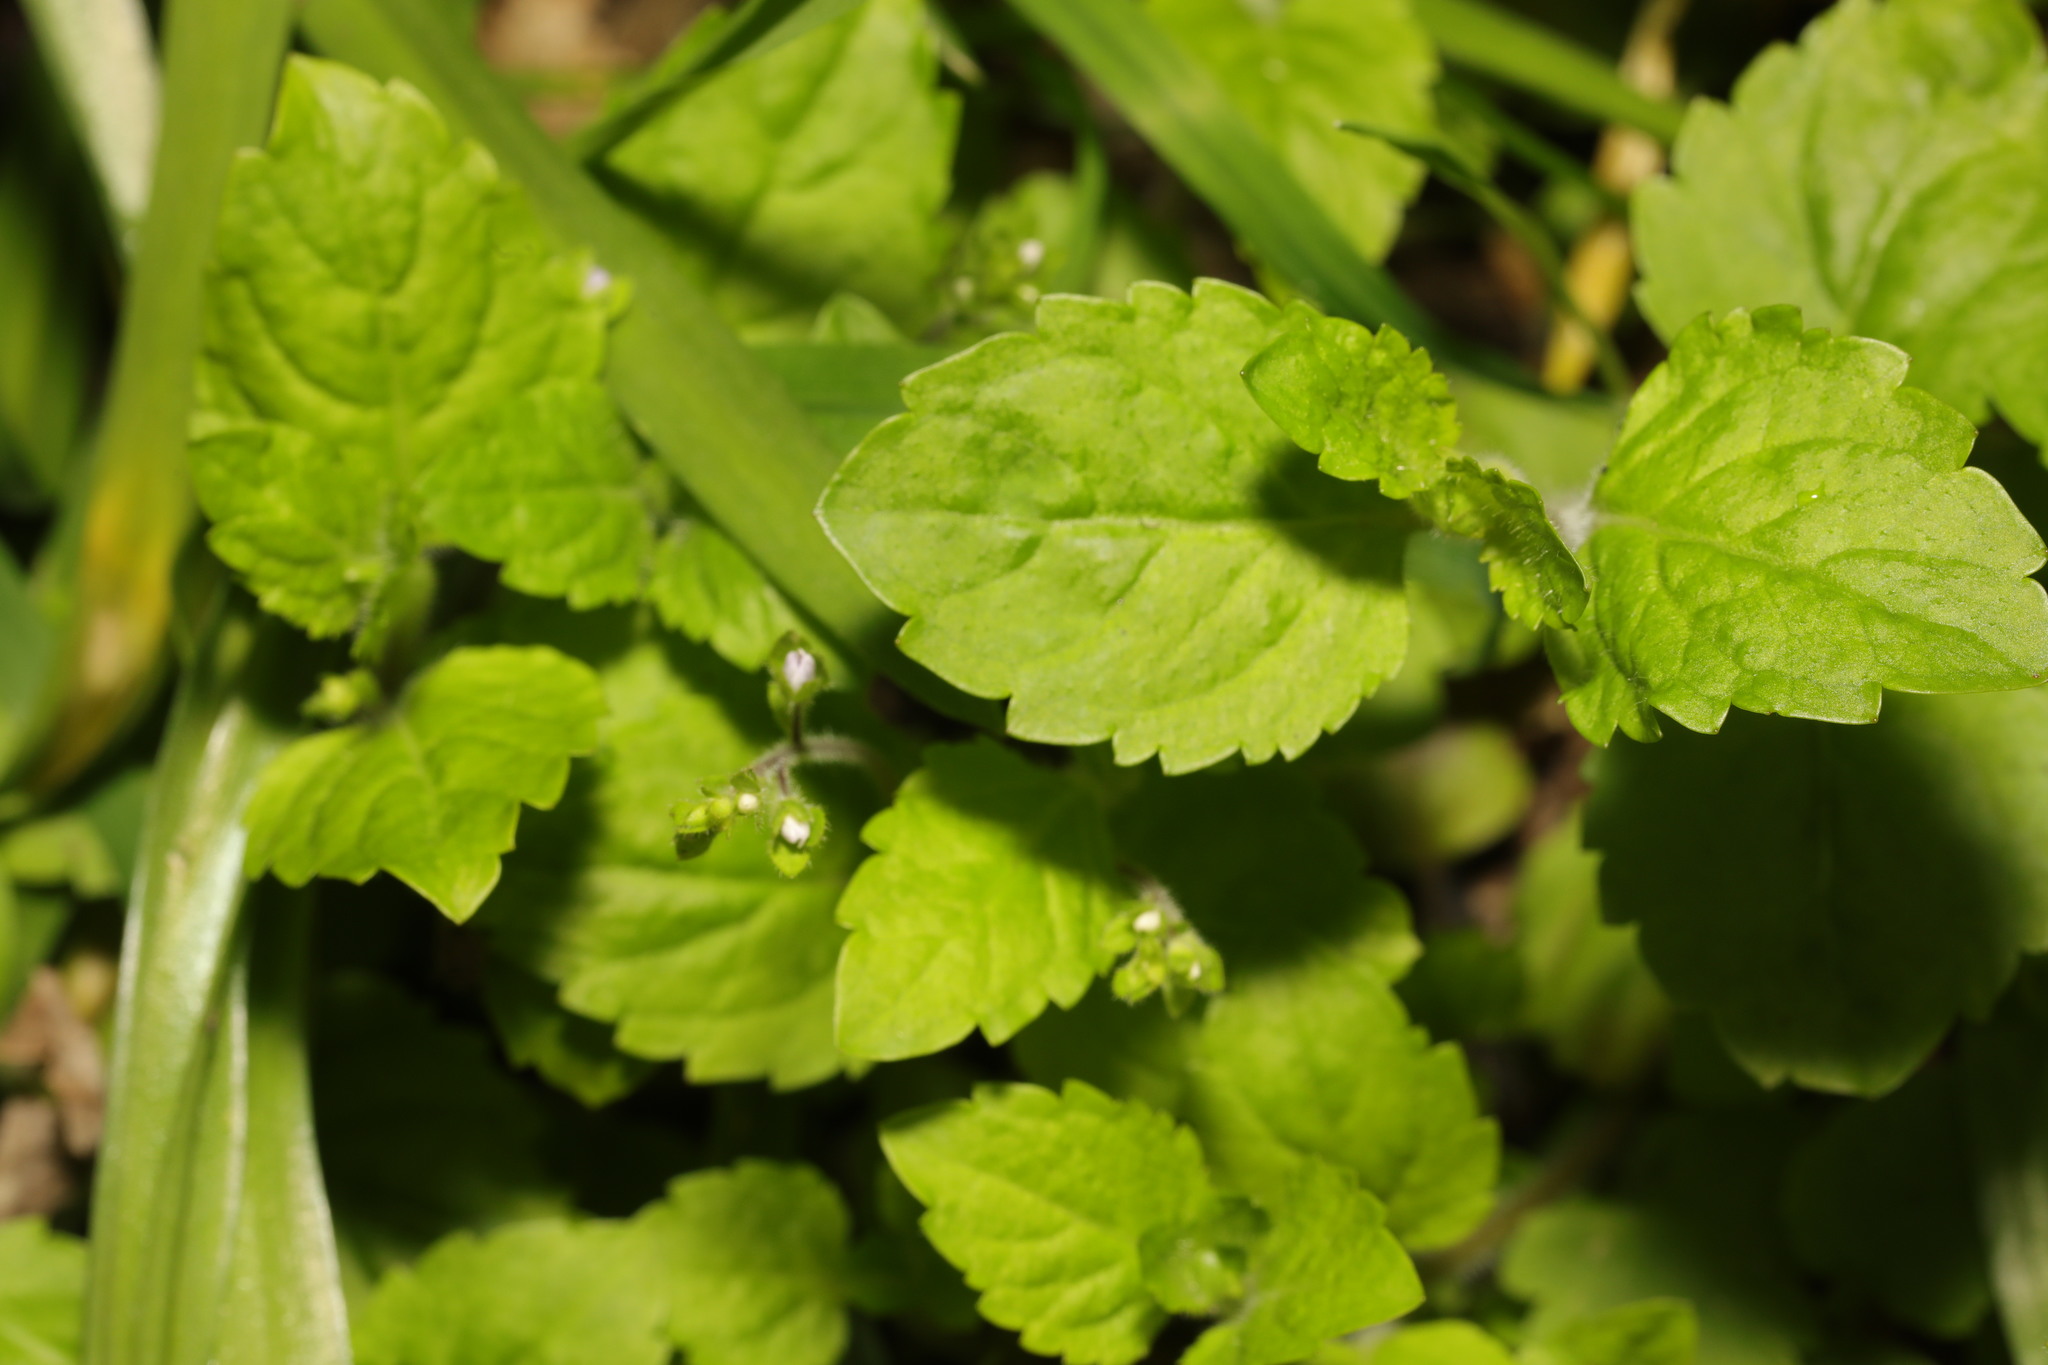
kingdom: Plantae
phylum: Tracheophyta
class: Magnoliopsida
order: Lamiales
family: Plantaginaceae
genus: Veronica
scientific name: Veronica montana
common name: Wood speedwell
